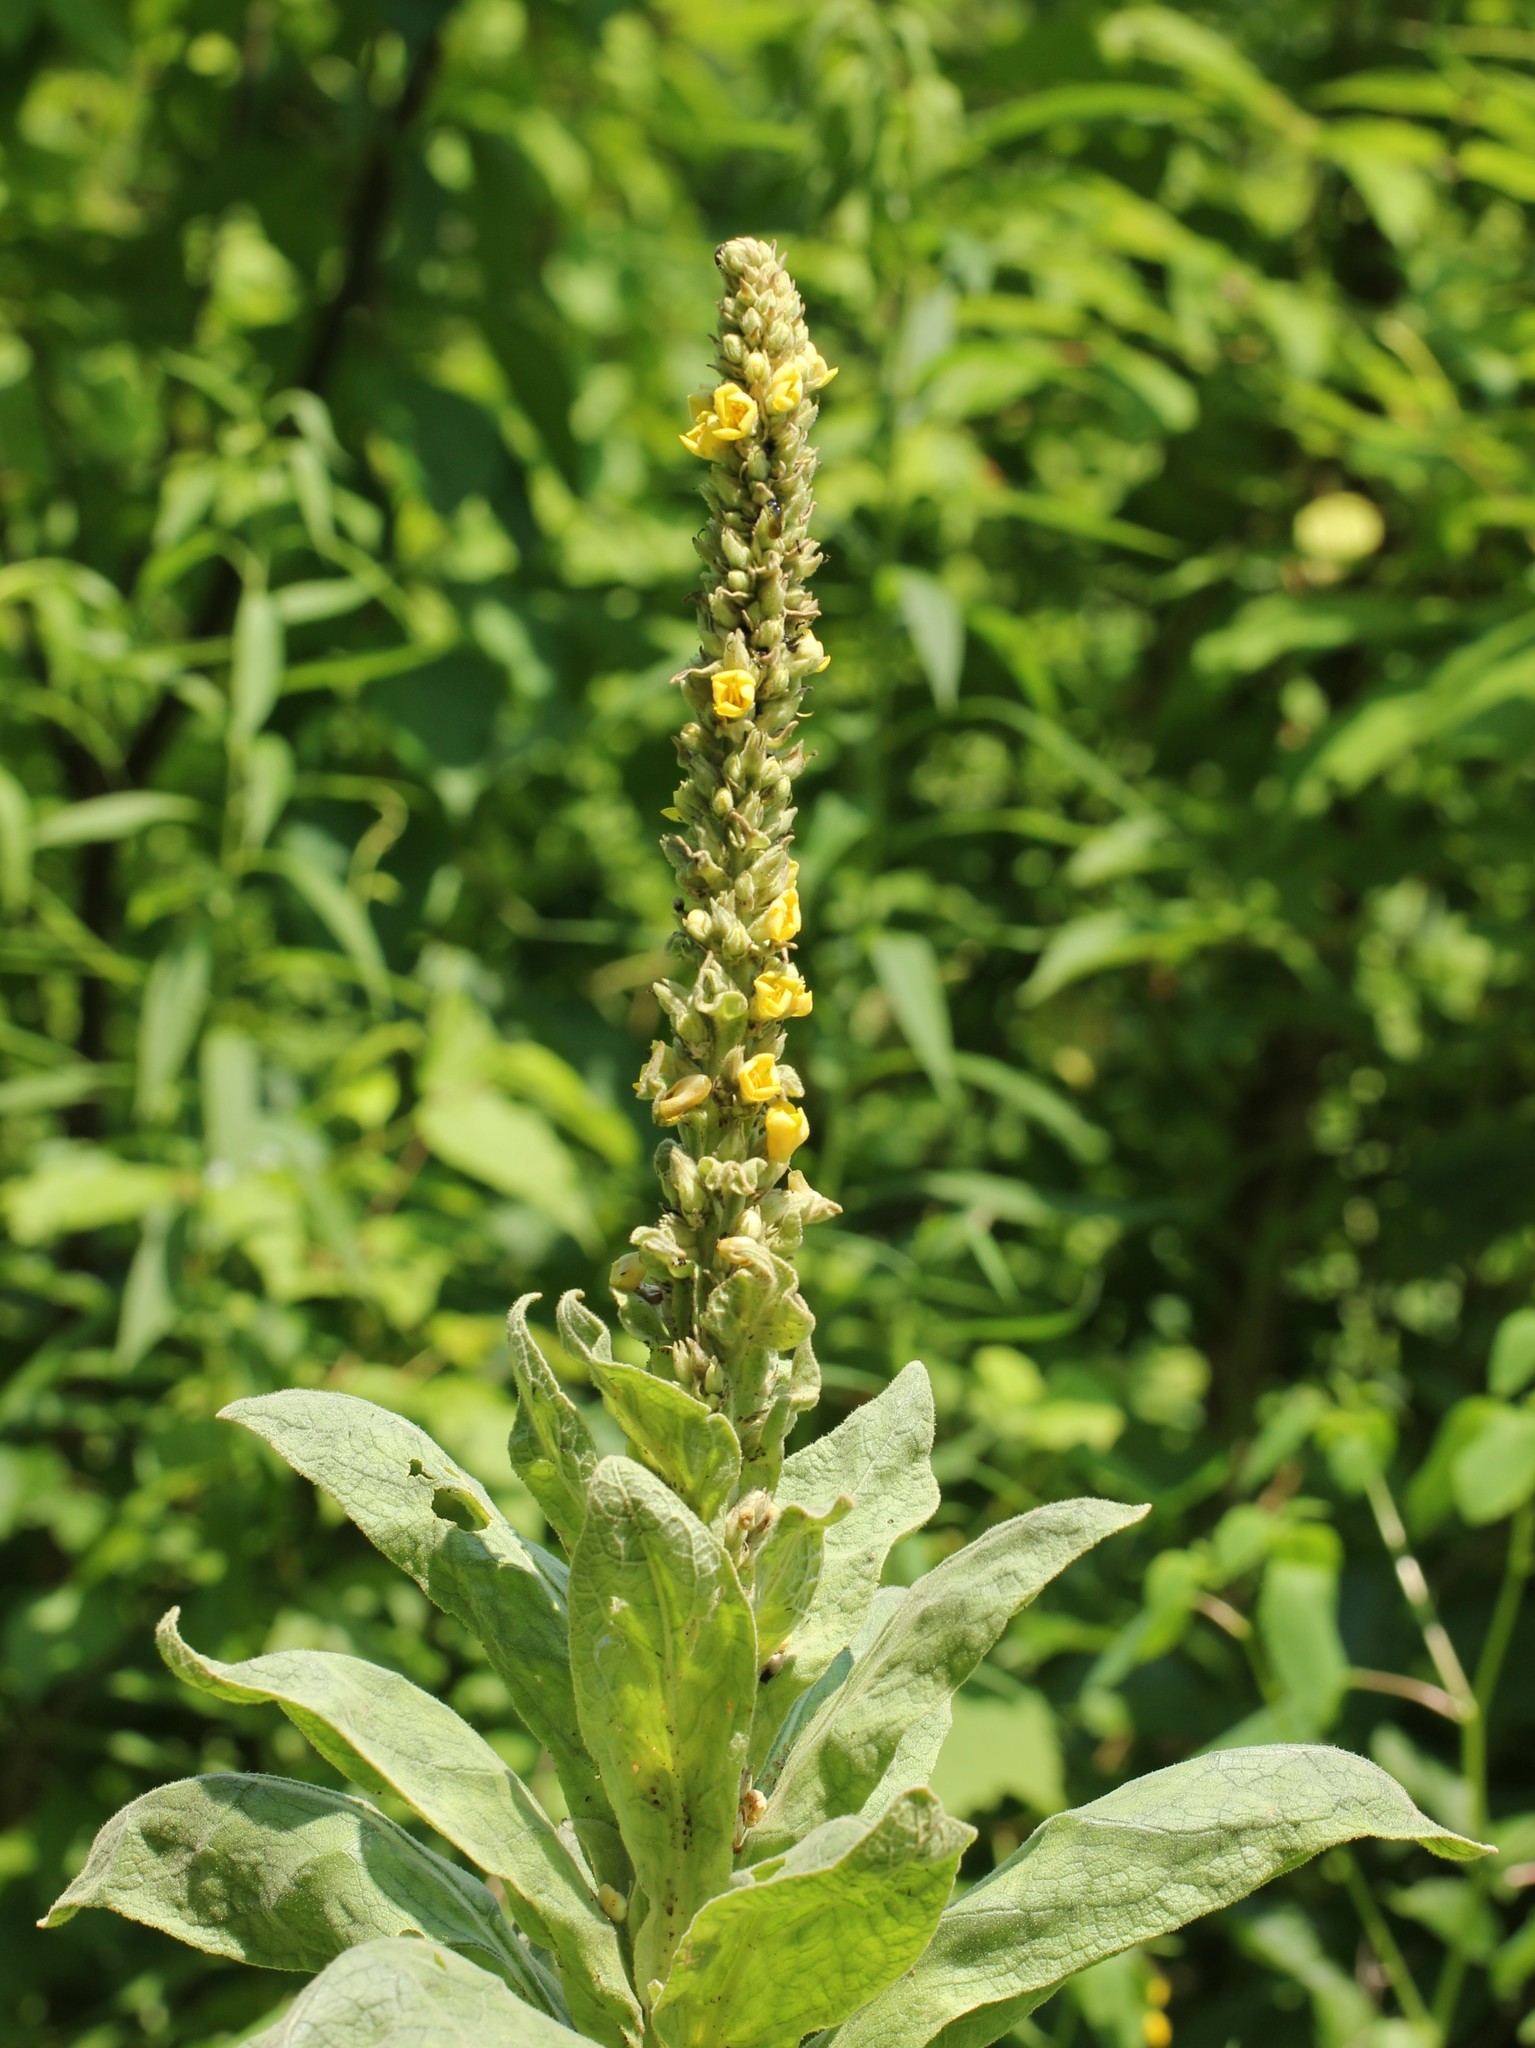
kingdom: Plantae
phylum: Tracheophyta
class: Magnoliopsida
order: Lamiales
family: Scrophulariaceae
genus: Verbascum
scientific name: Verbascum thapsus
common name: Common mullein
